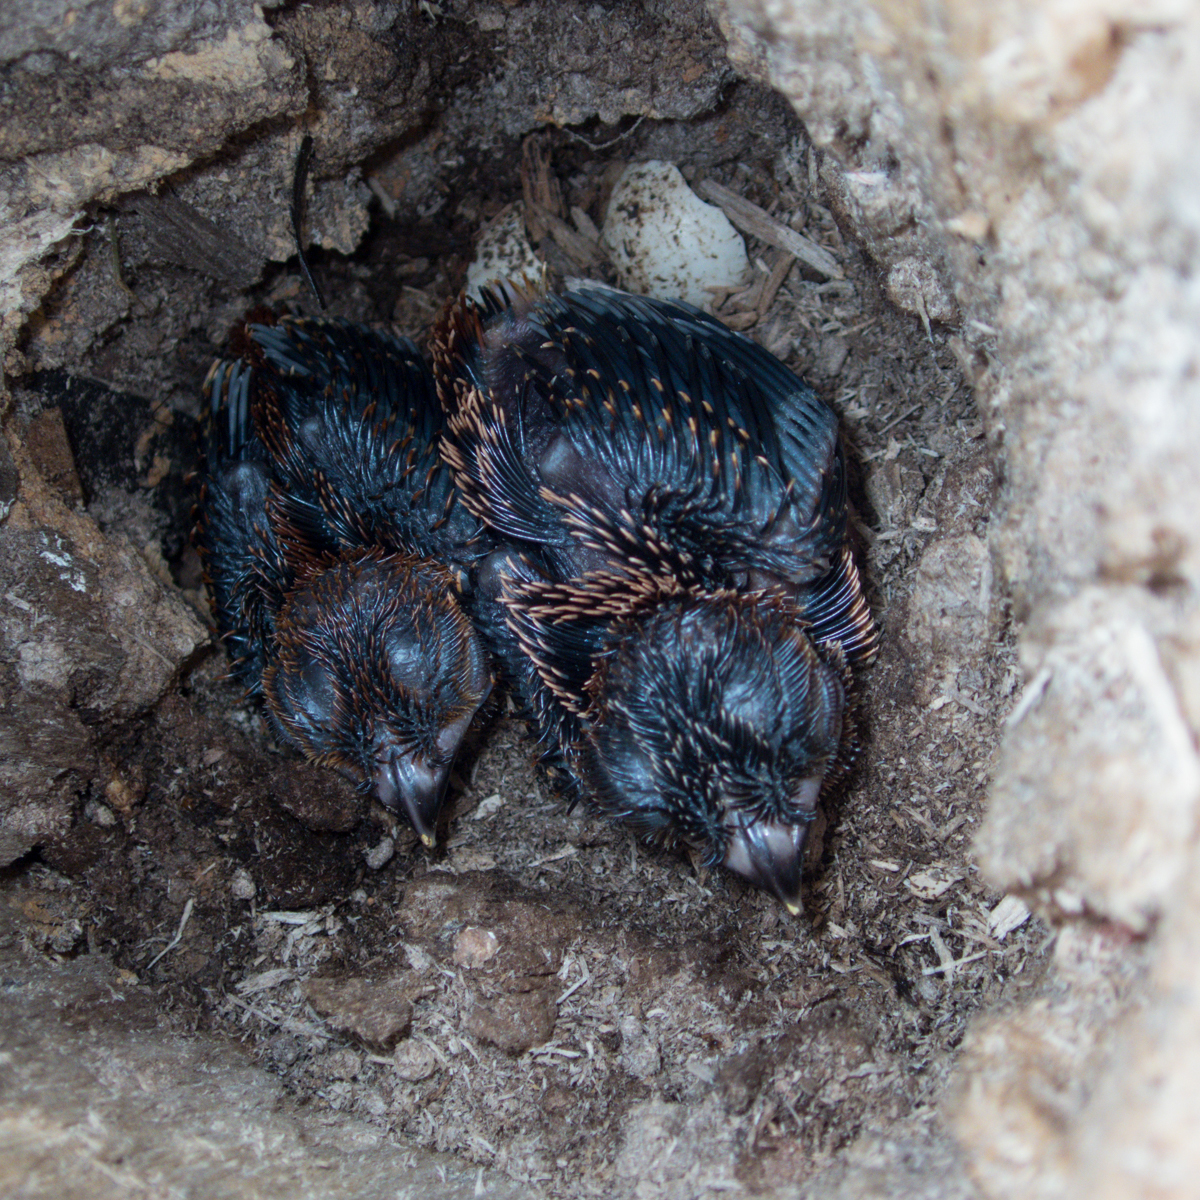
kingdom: Animalia
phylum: Chordata
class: Aves
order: Trogoniformes
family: Trogonidae
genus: Harpactes
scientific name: Harpactes erythrocephalus
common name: Red-headed trogon
